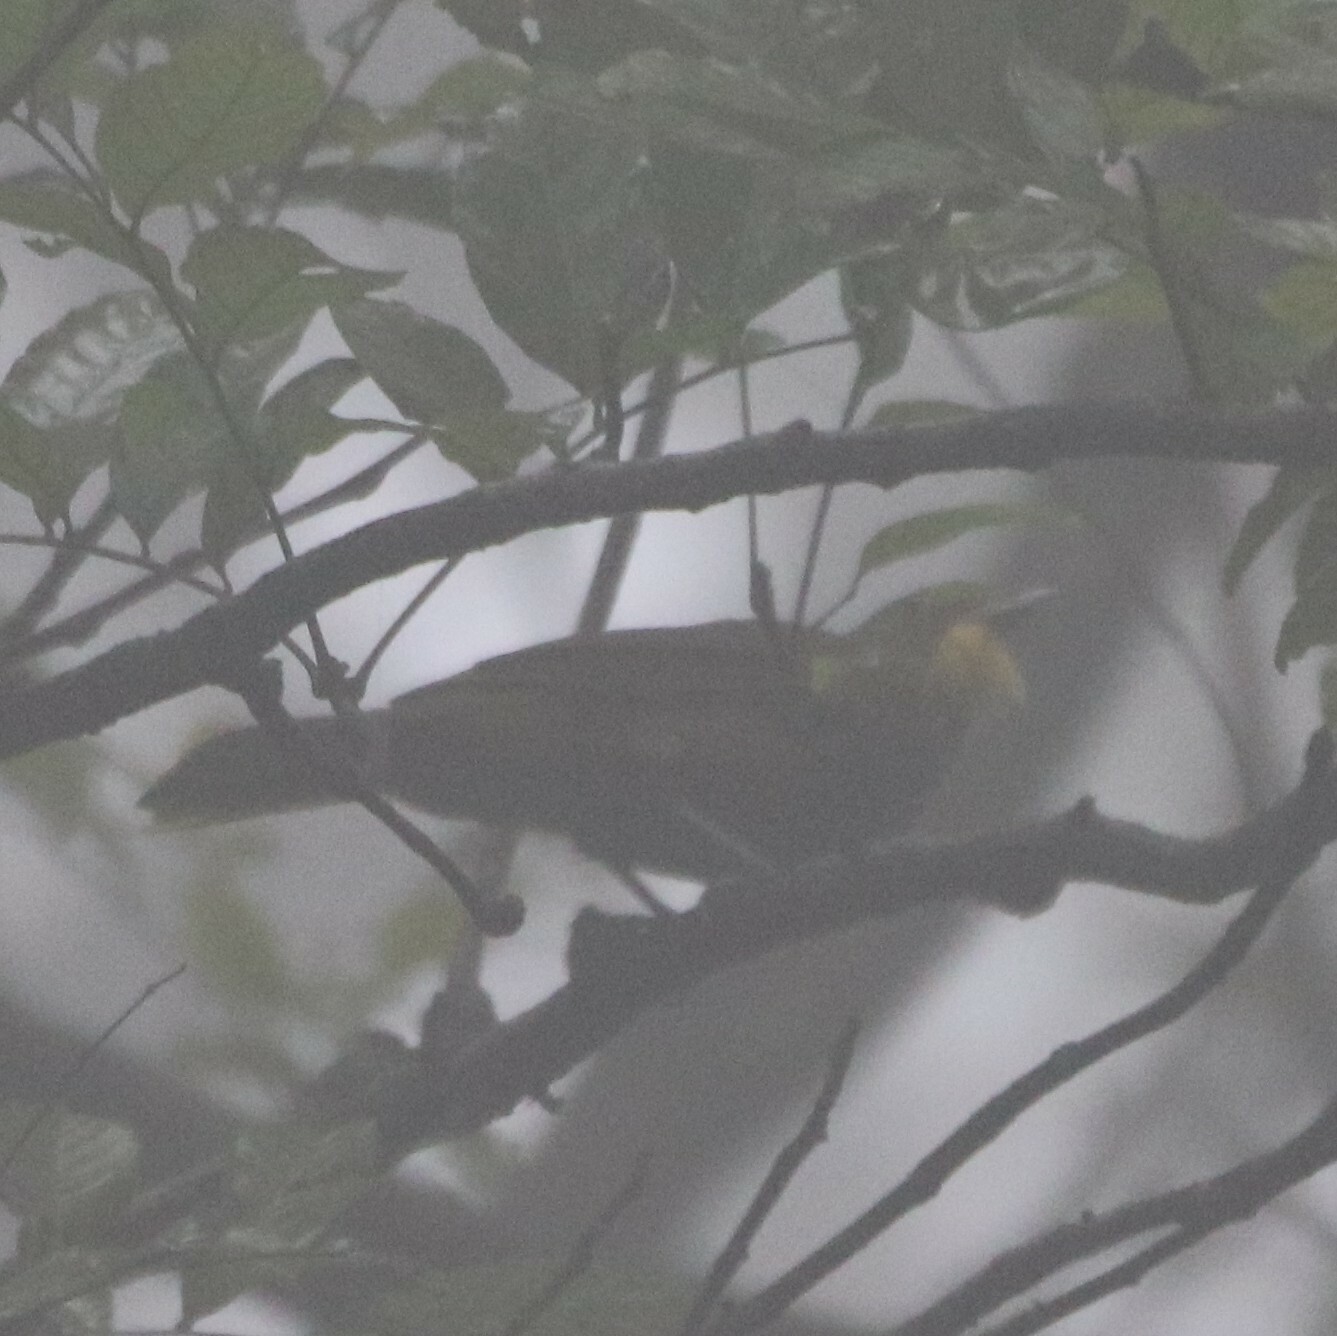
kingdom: Animalia
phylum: Chordata
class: Aves
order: Passeriformes
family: Pycnonotidae
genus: Criniger
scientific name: Criniger barbatus
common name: Western bearded greenbul
